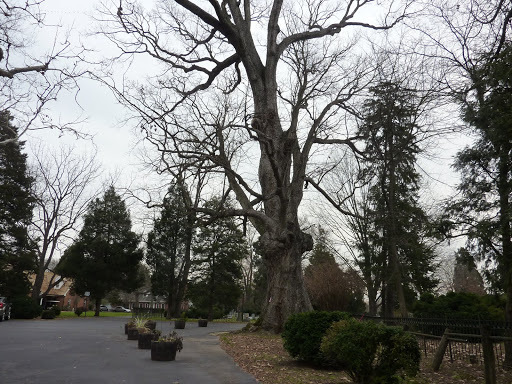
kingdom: Plantae
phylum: Tracheophyta
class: Magnoliopsida
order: Fagales
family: Fagaceae
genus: Quercus
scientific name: Quercus michauxii
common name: Swamp chestnut oak
